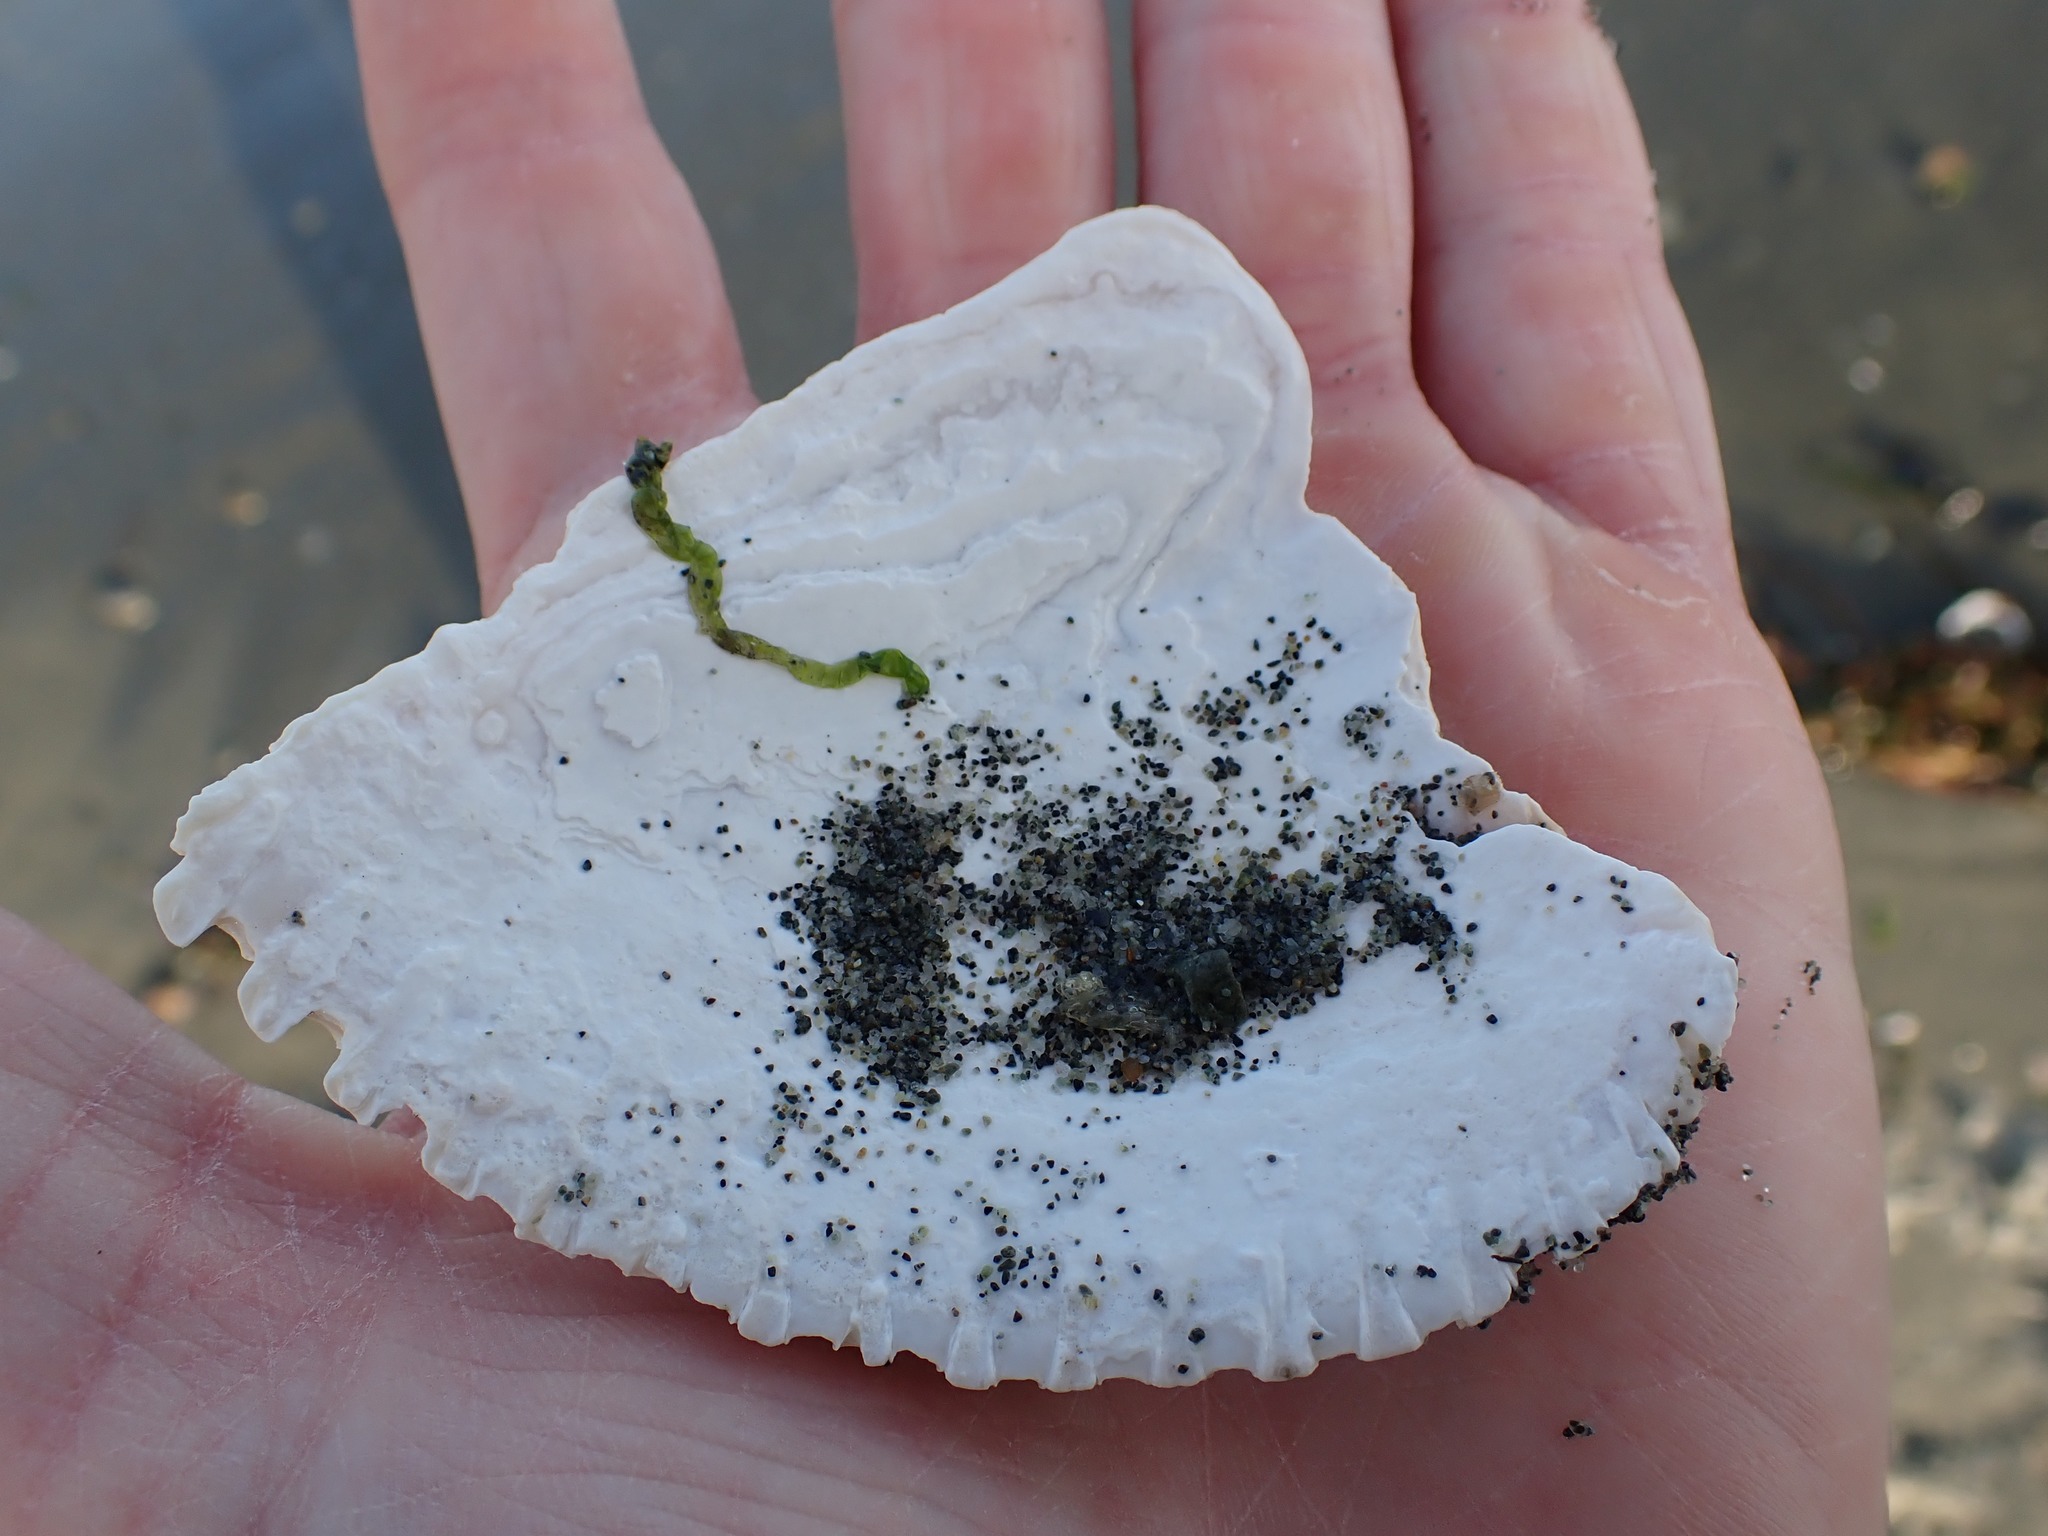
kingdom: Animalia
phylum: Mollusca
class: Bivalvia
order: Cardiida
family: Cardiidae
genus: Clinocardium
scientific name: Clinocardium nuttallii
